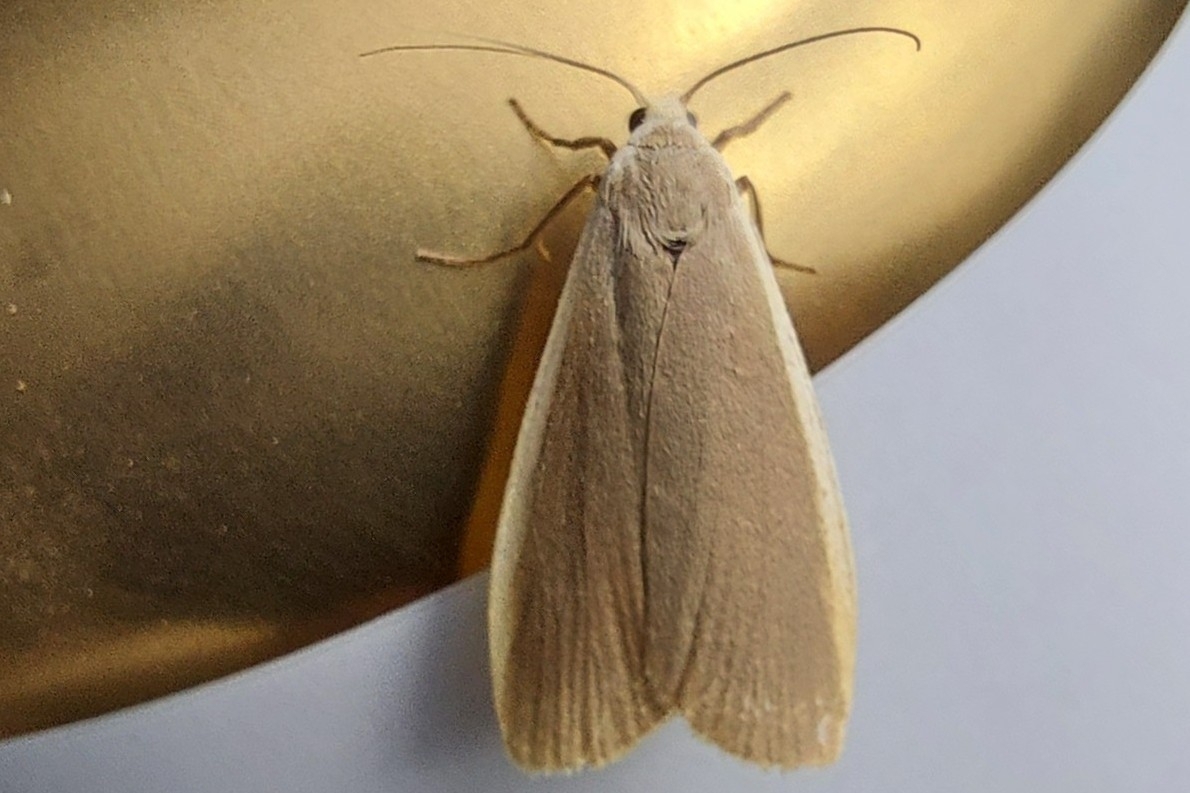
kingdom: Animalia
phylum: Arthropoda
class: Insecta
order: Lepidoptera
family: Erebidae
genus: Nyea
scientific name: Nyea lurideola
